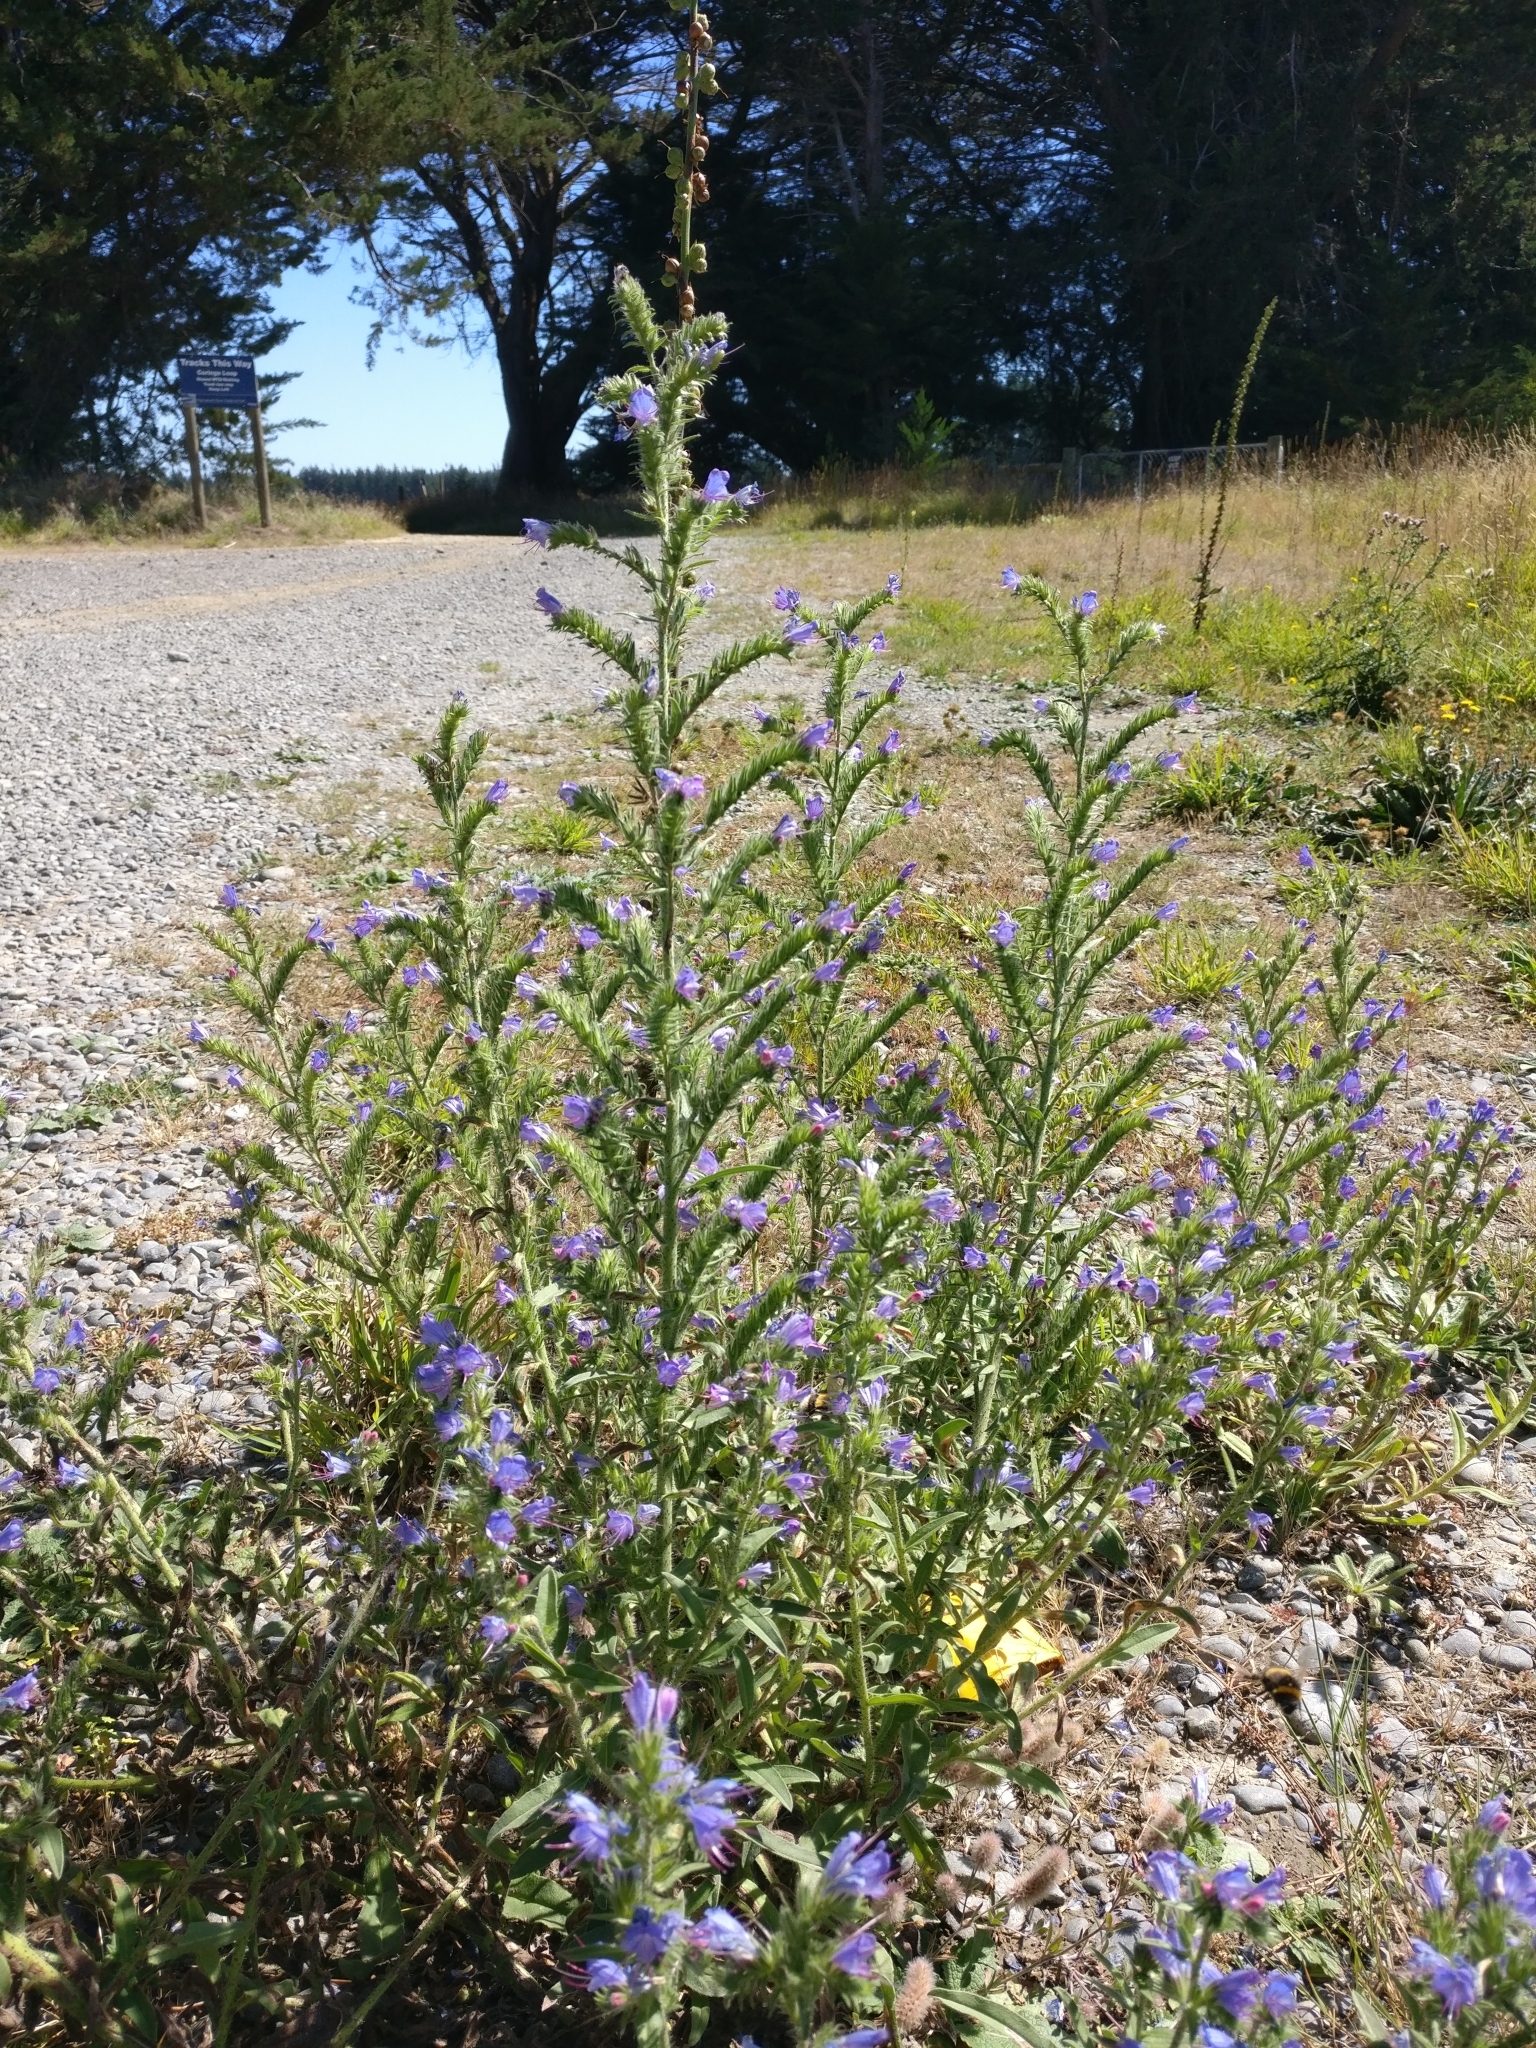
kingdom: Plantae
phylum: Tracheophyta
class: Magnoliopsida
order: Boraginales
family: Boraginaceae
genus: Echium
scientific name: Echium vulgare
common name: Common viper's bugloss
